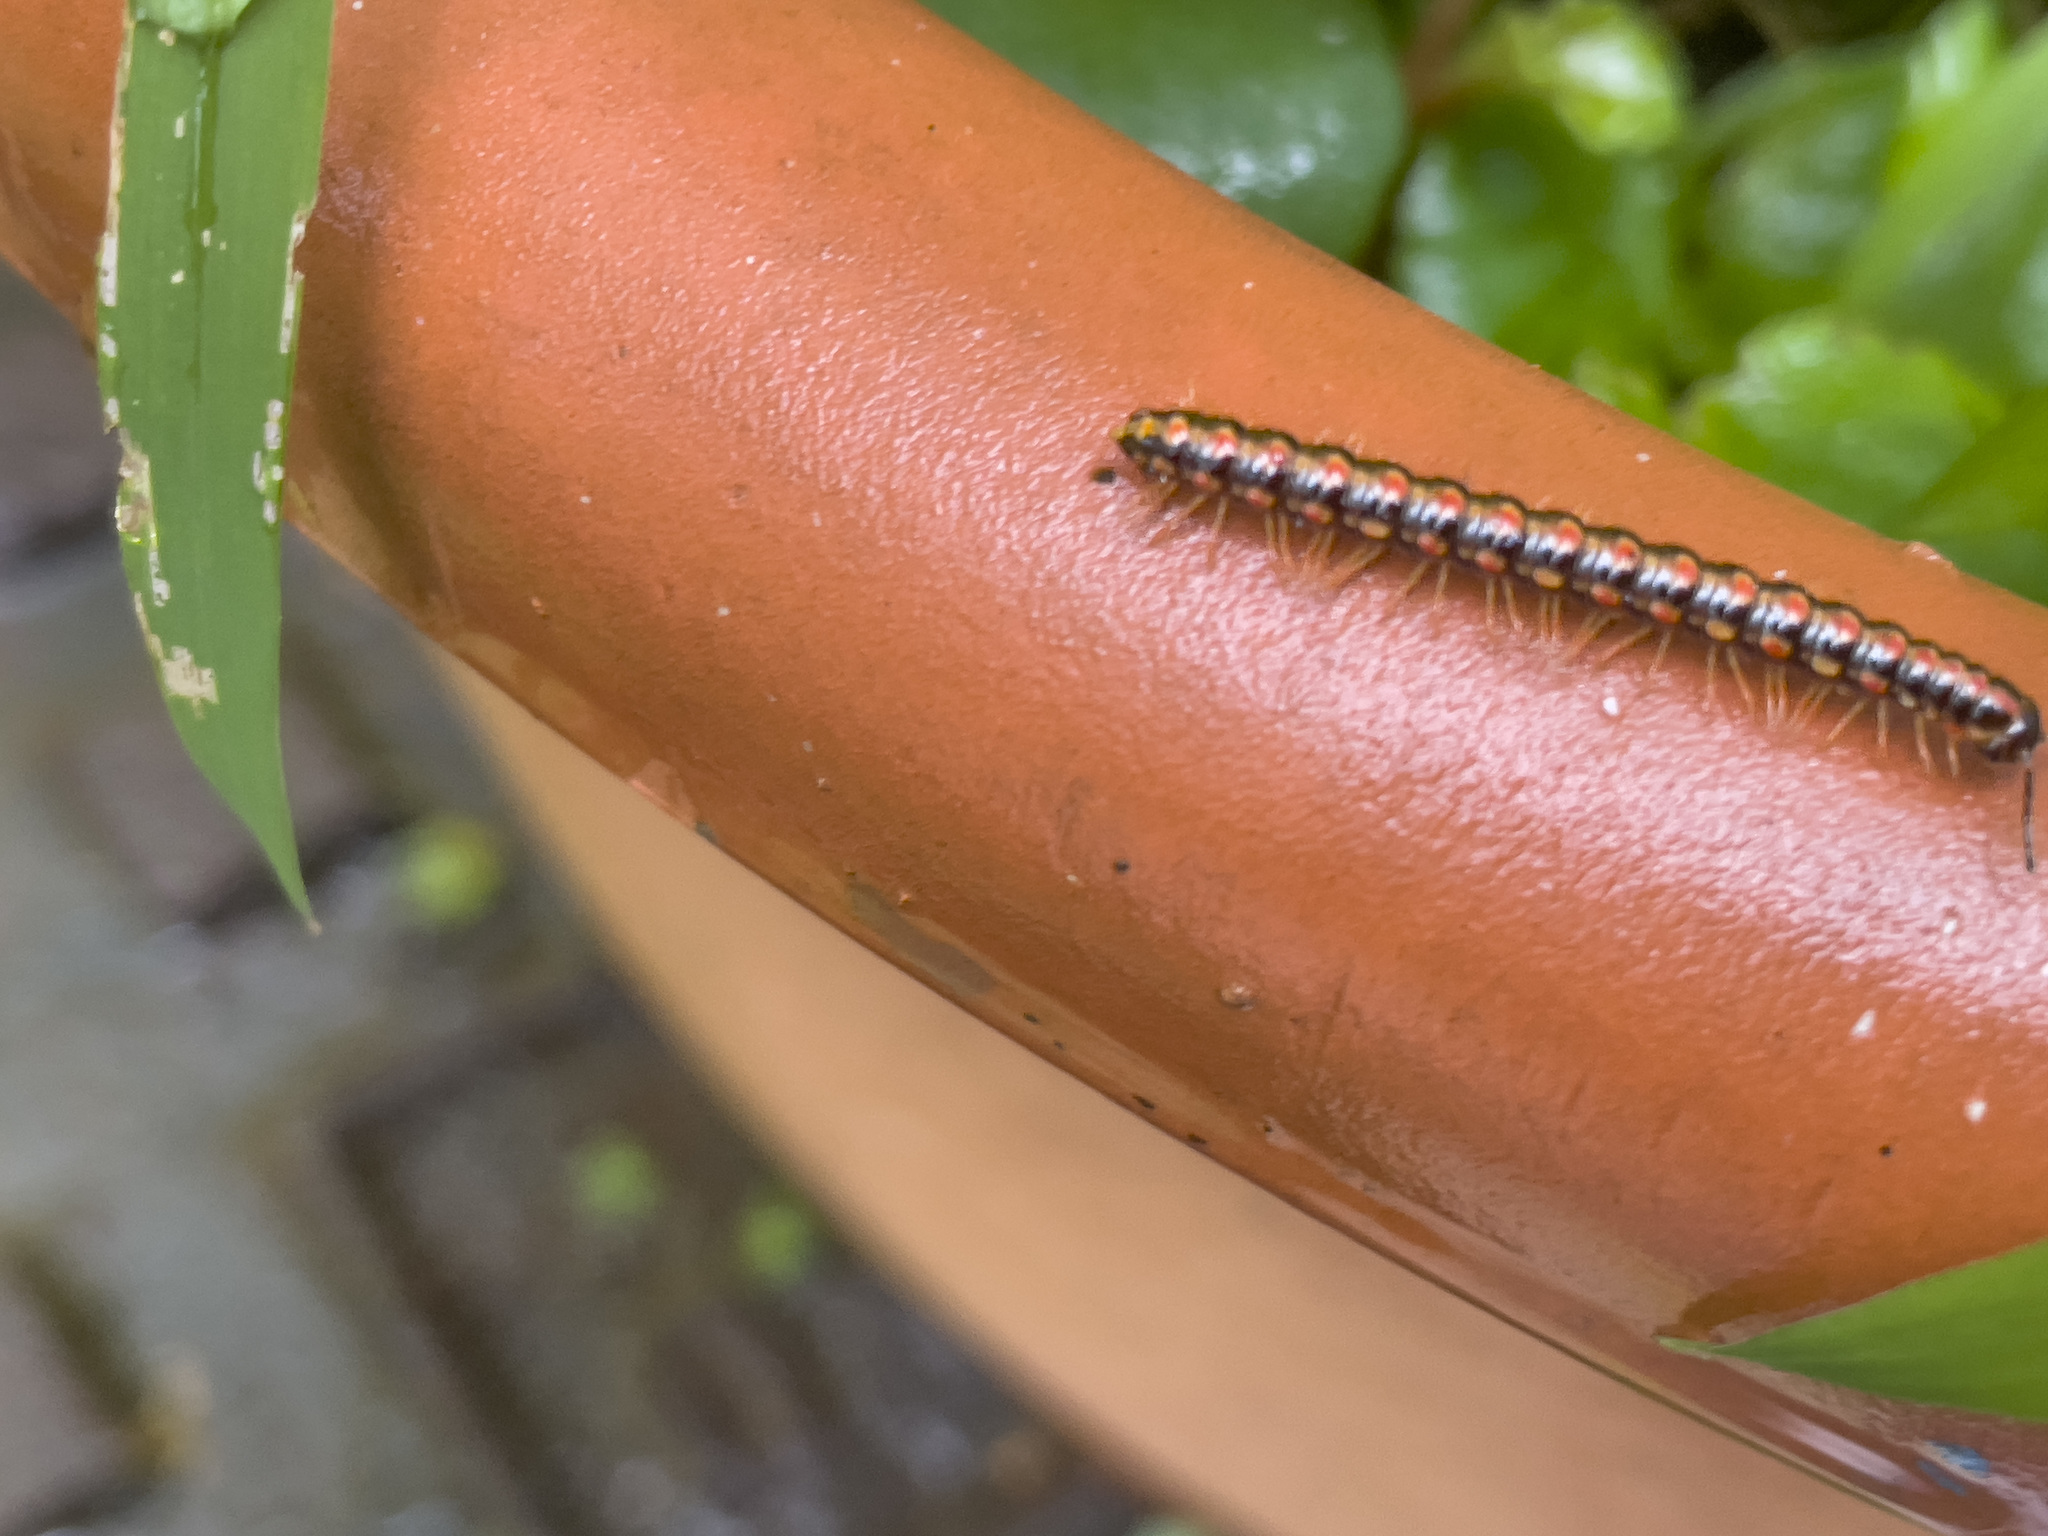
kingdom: Animalia
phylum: Arthropoda
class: Diplopoda
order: Polydesmida
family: Paradoxosomatidae
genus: Helicorthomorpha
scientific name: Helicorthomorpha holstii
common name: Millipede
